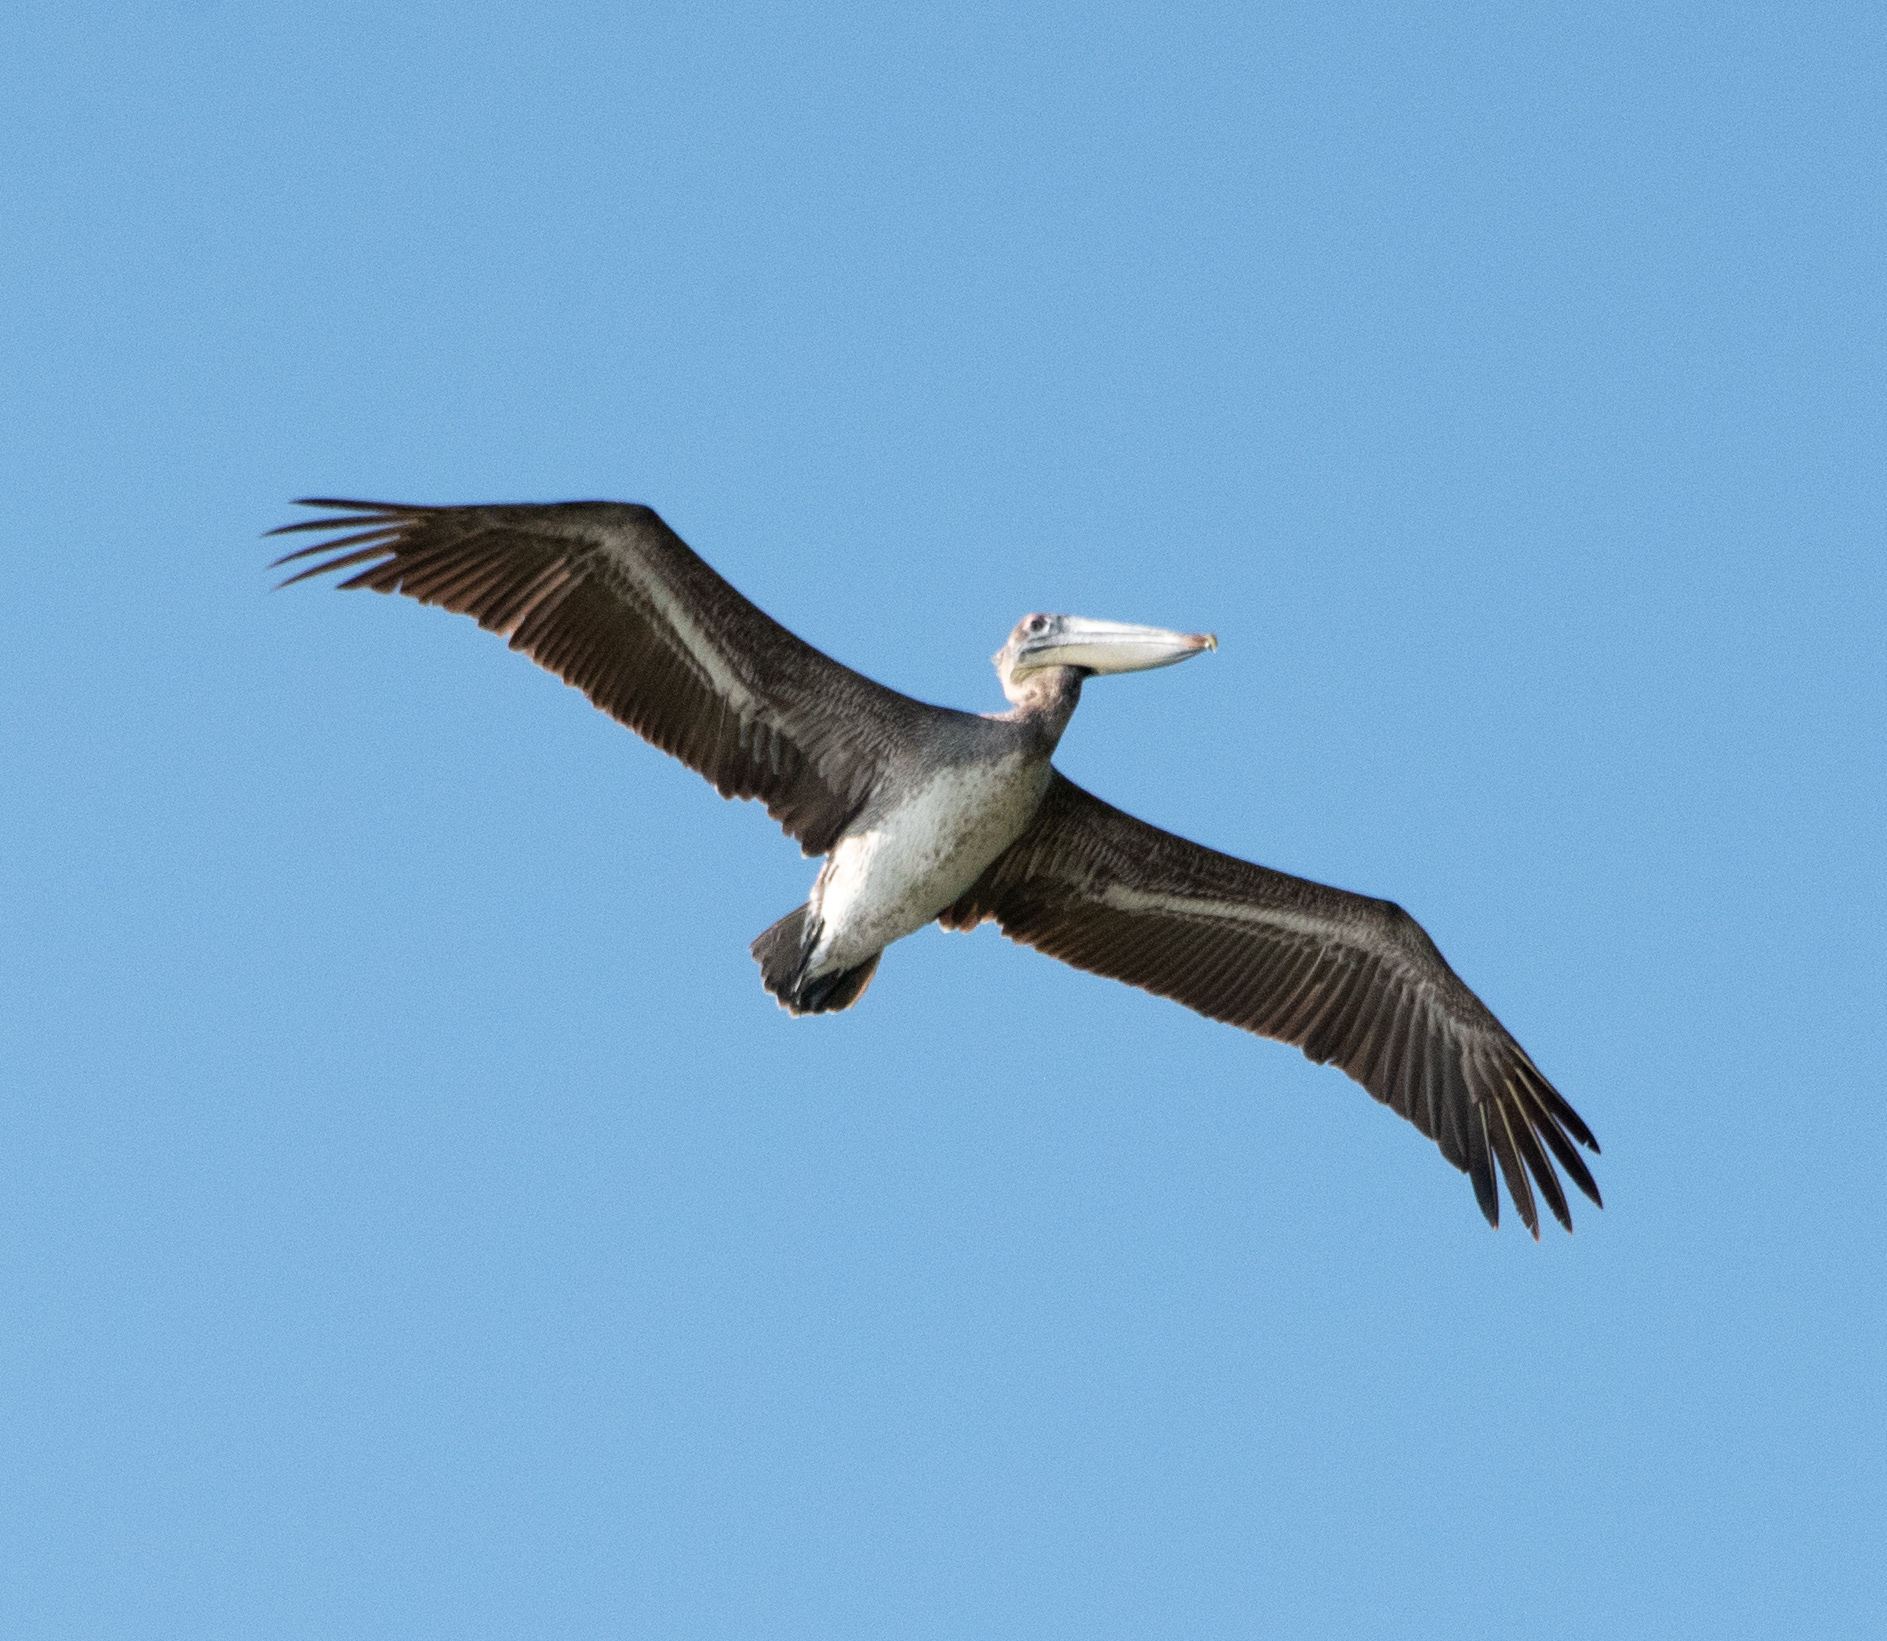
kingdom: Animalia
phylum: Chordata
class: Aves
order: Pelecaniformes
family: Pelecanidae
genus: Pelecanus
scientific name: Pelecanus occidentalis
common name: Brown pelican
